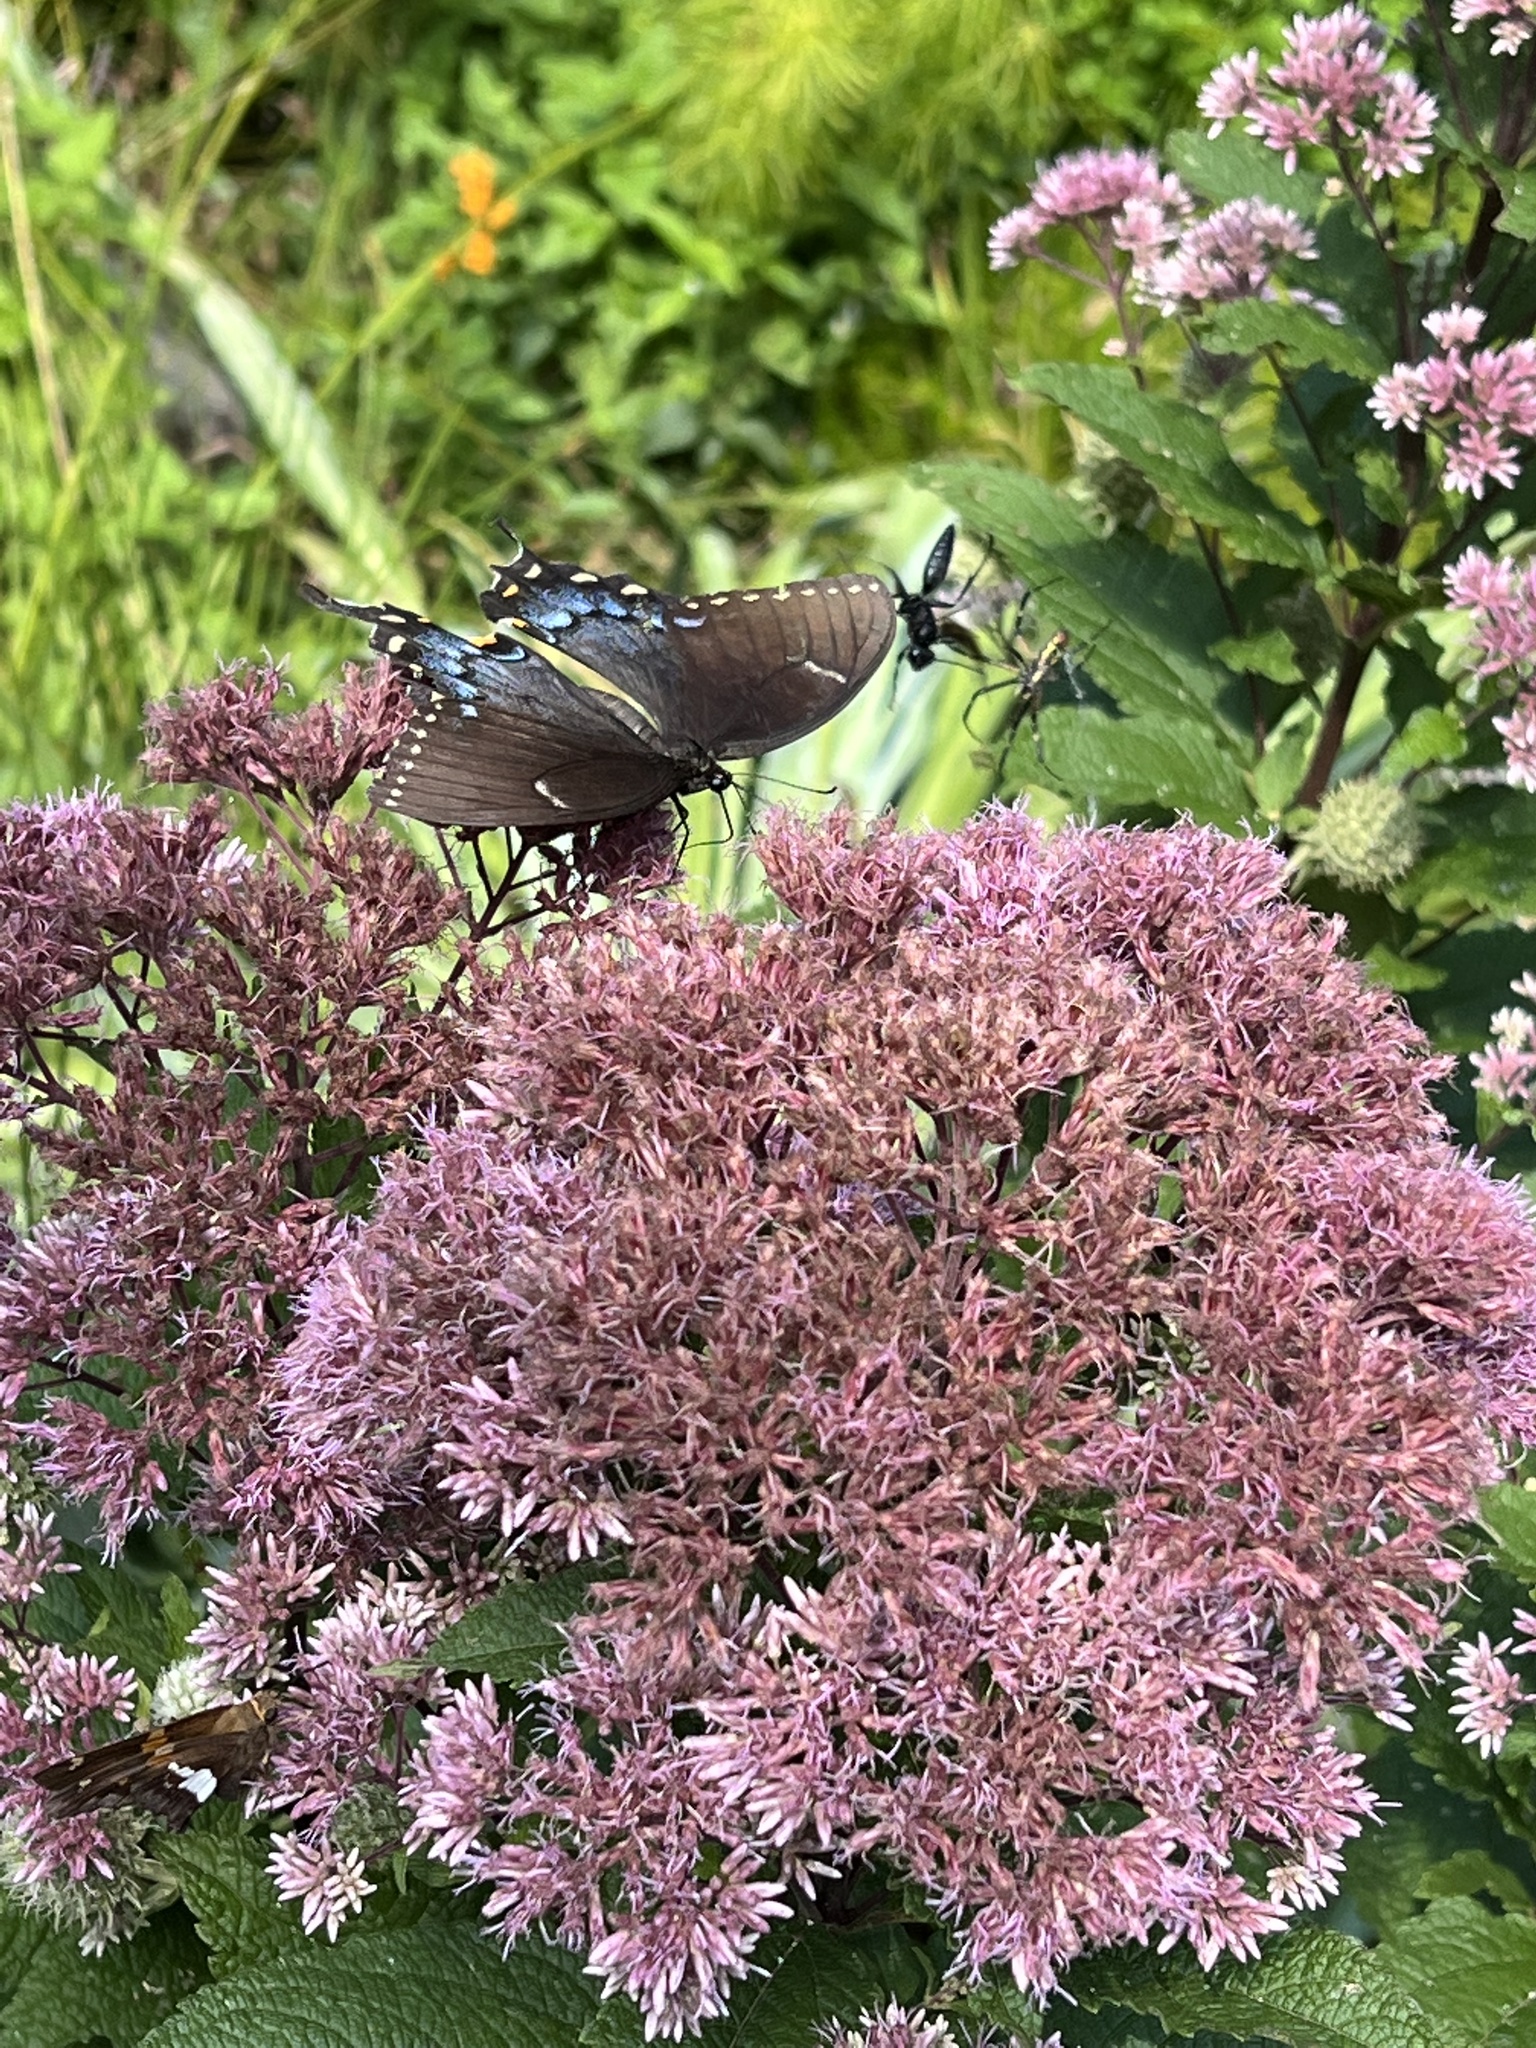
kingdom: Animalia
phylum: Arthropoda
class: Insecta
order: Lepidoptera
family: Papilionidae
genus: Papilio
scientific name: Papilio glaucus
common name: Tiger swallowtail
